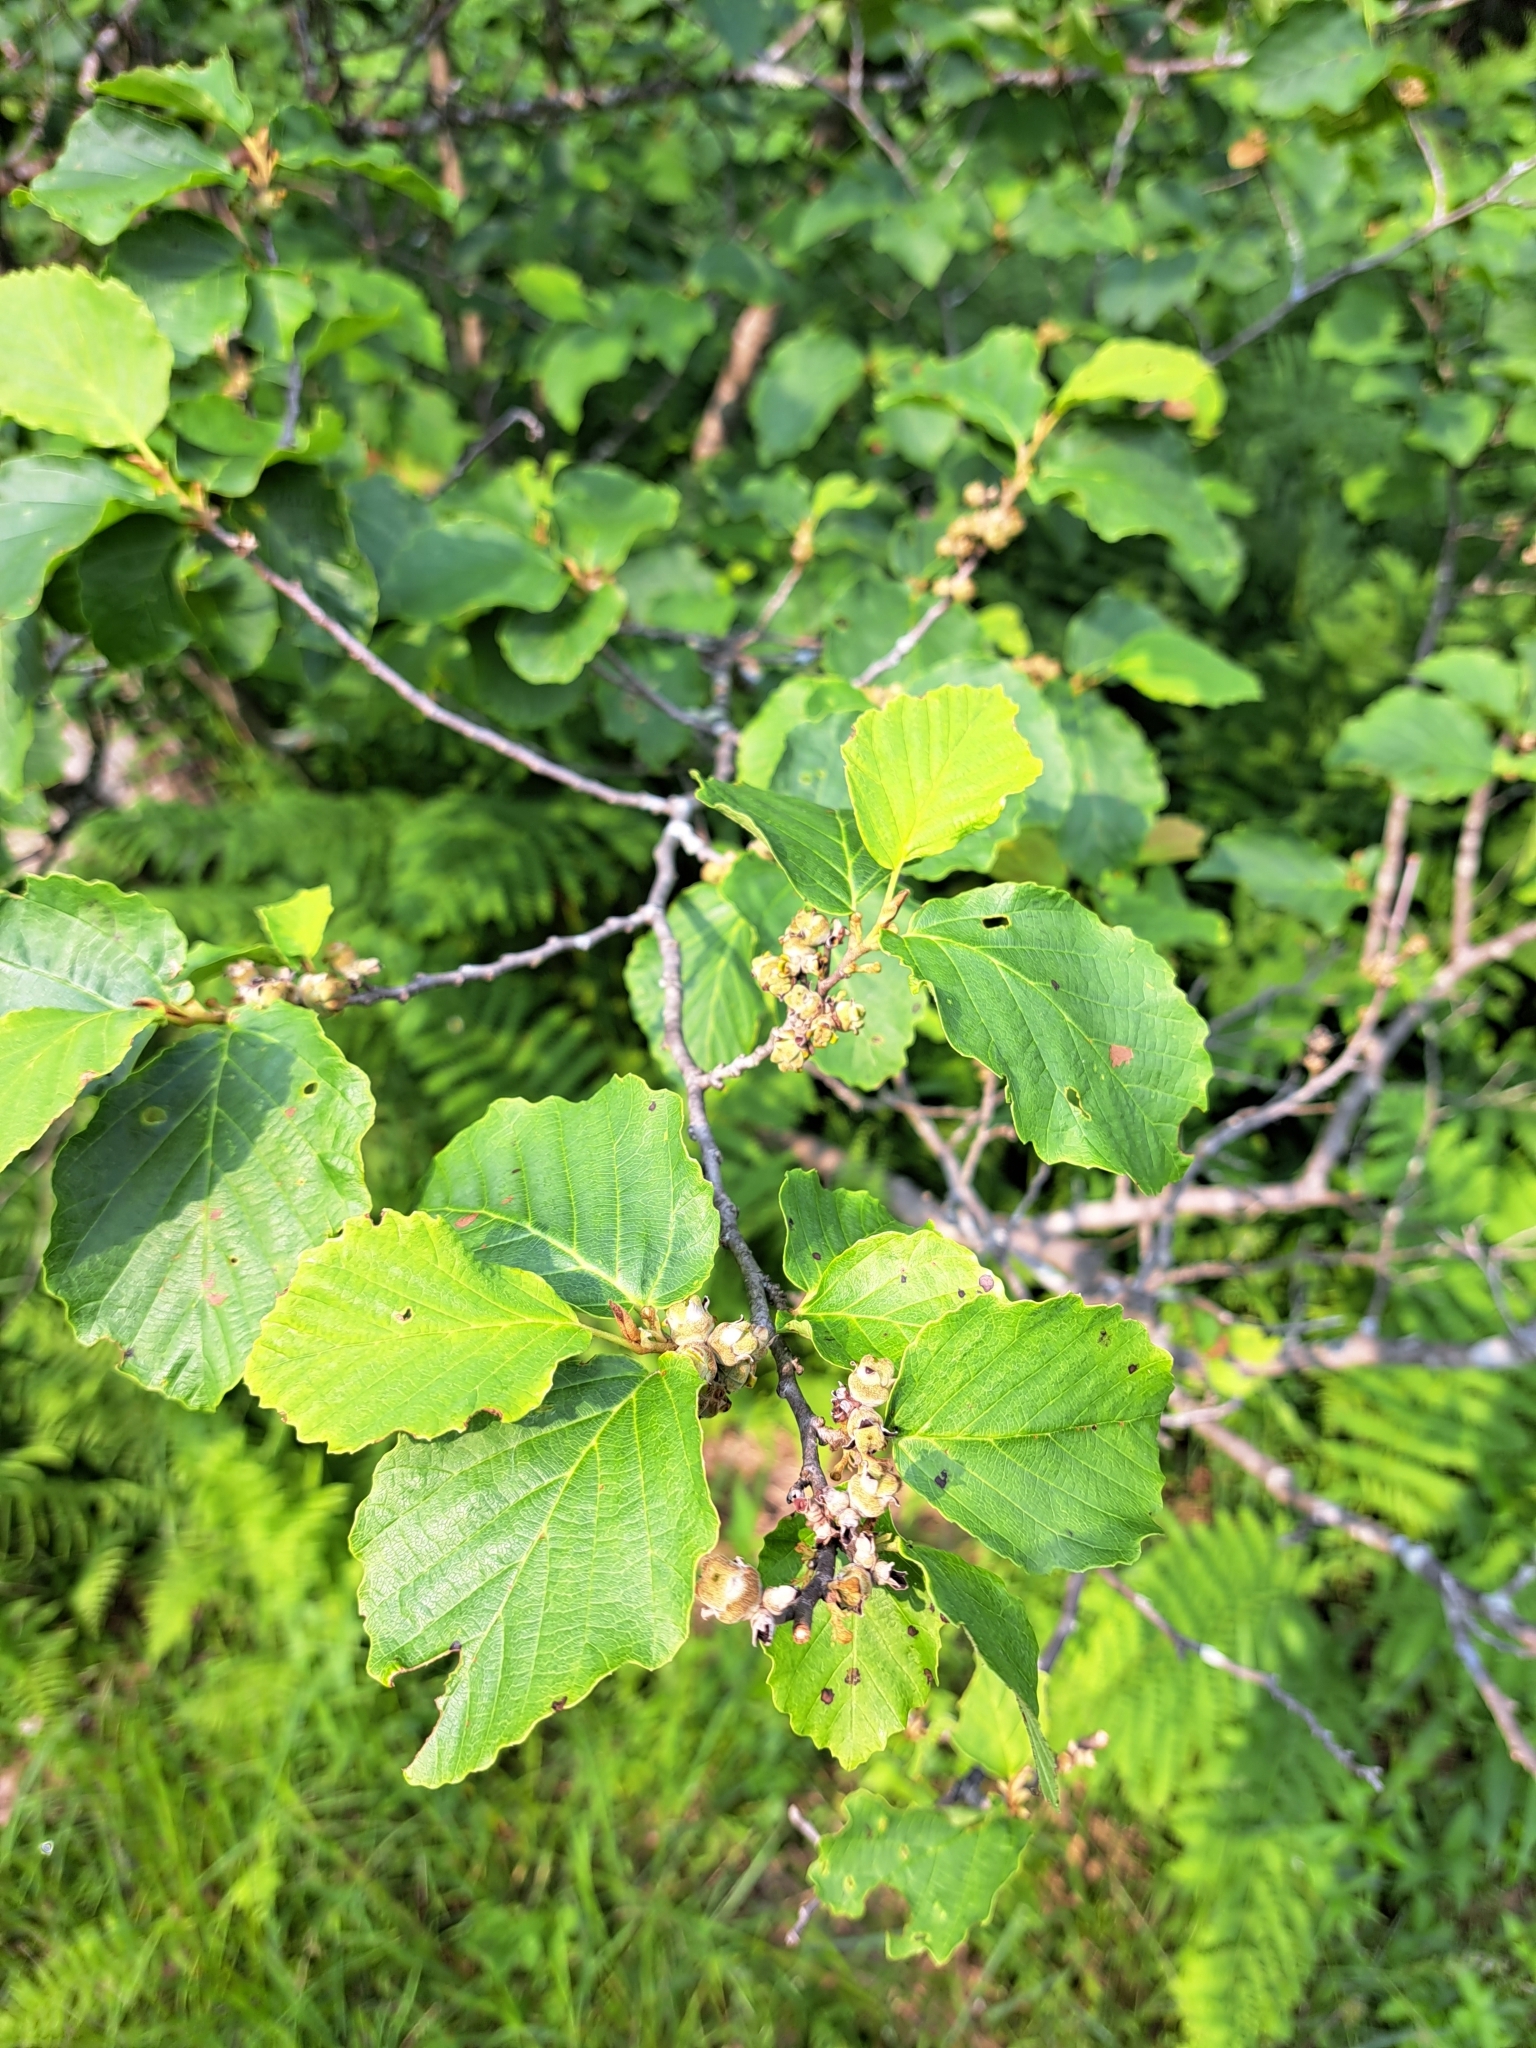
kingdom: Plantae
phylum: Tracheophyta
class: Magnoliopsida
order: Saxifragales
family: Hamamelidaceae
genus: Hamamelis
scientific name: Hamamelis virginiana
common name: Witch-hazel
